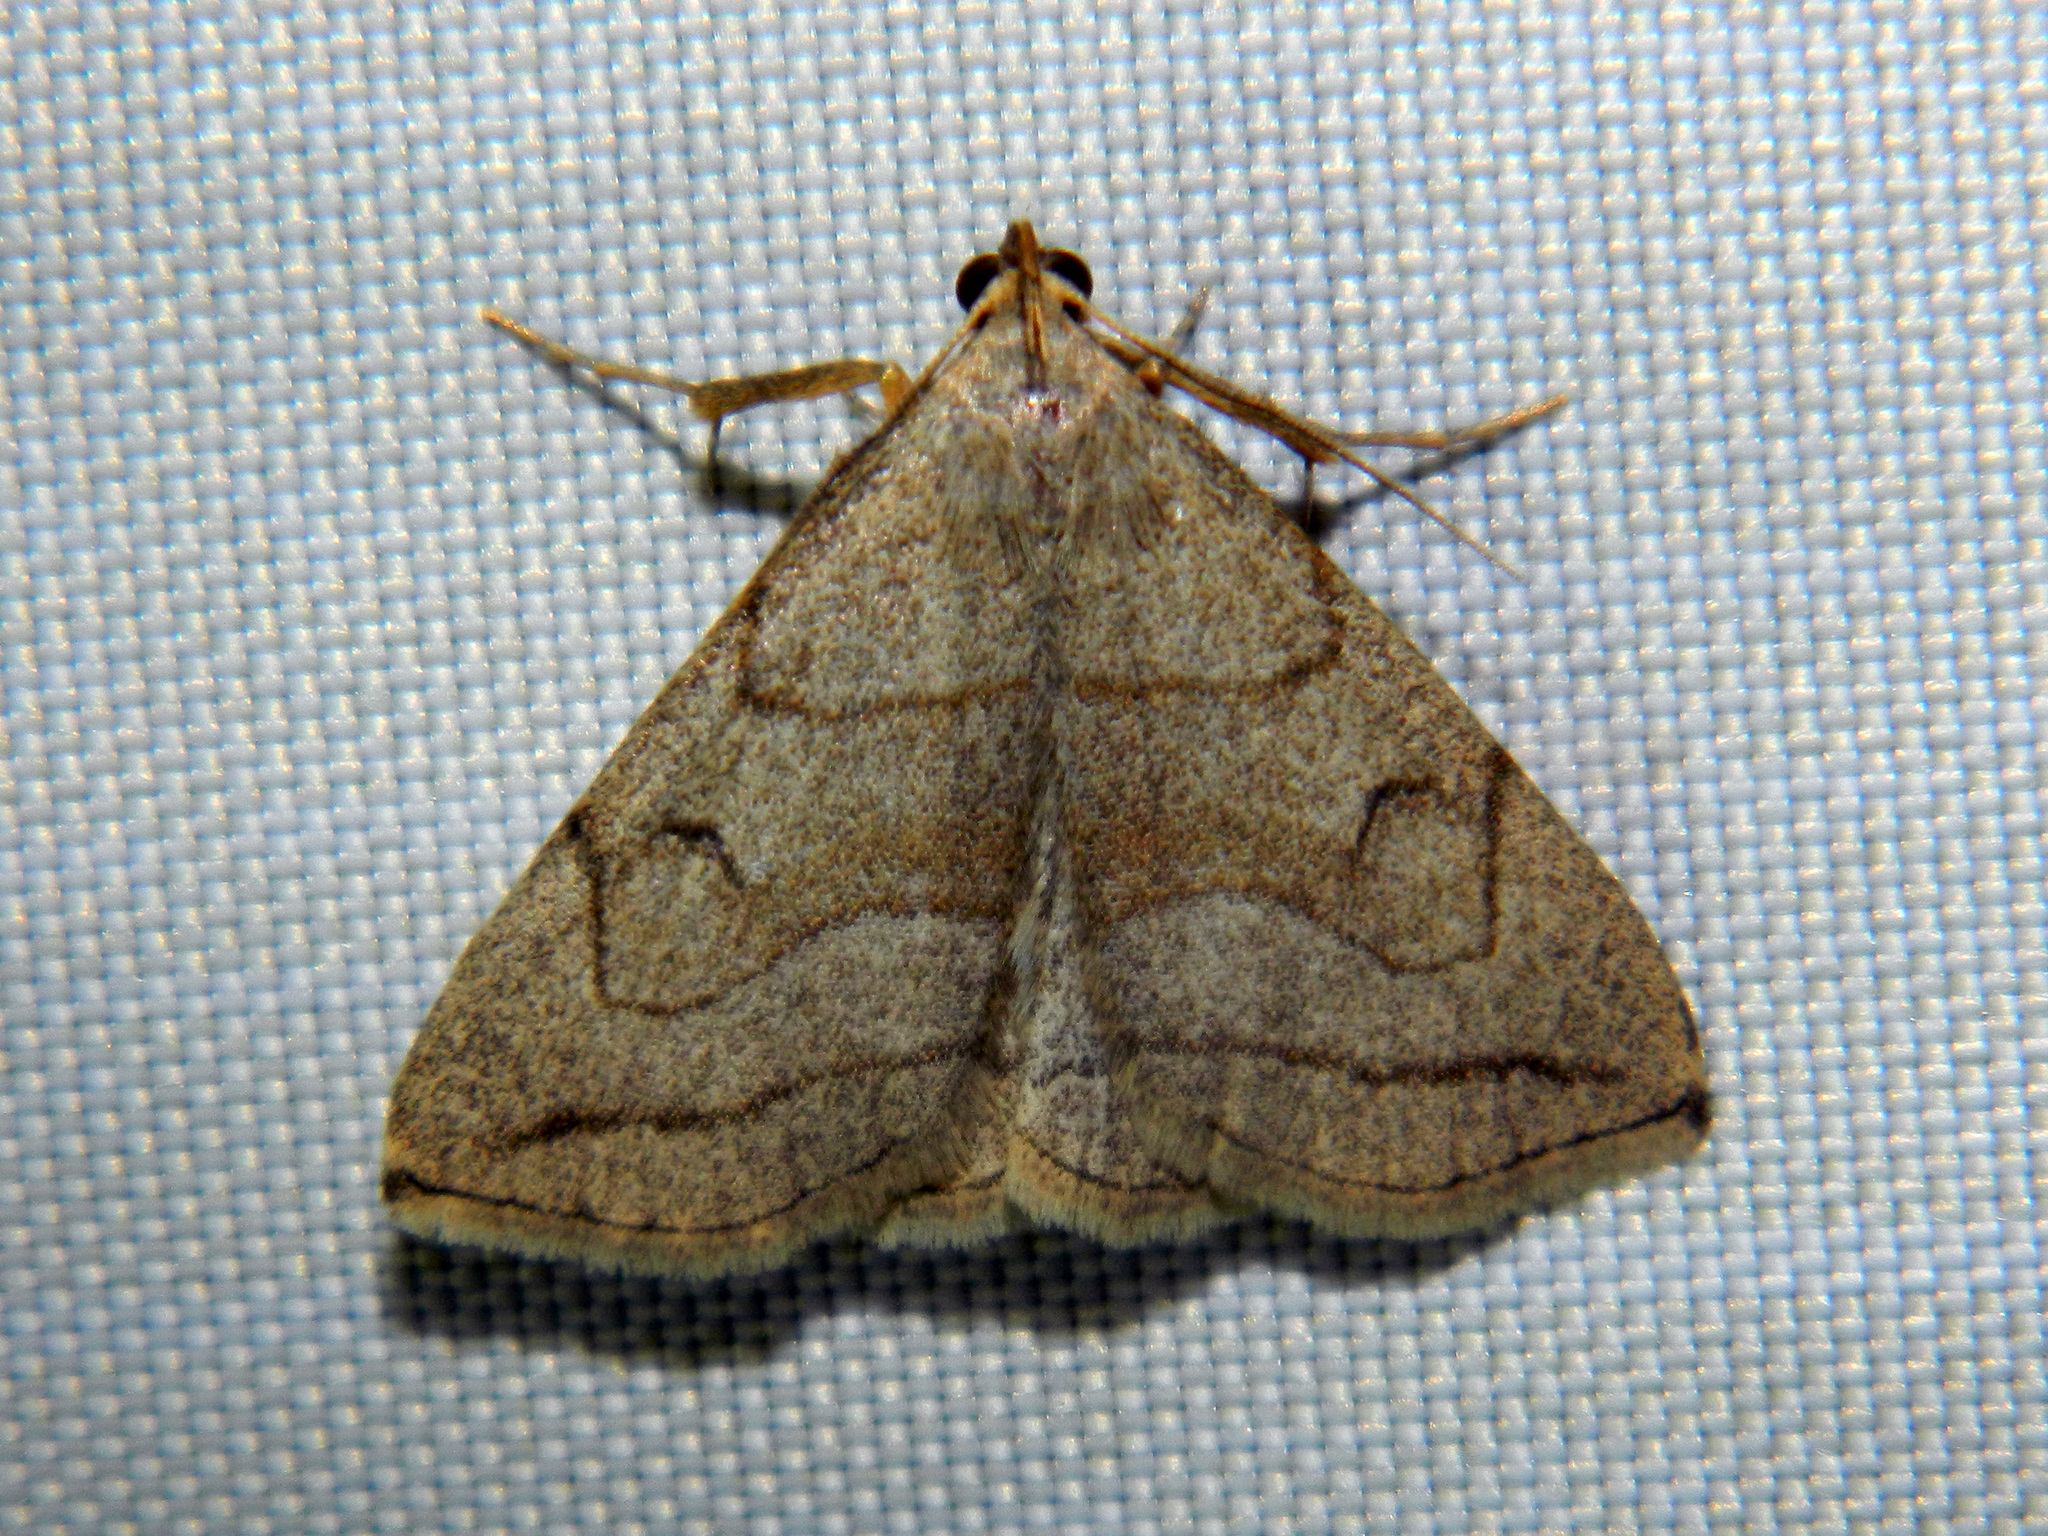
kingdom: Animalia
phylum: Arthropoda
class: Insecta
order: Lepidoptera
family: Erebidae
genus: Zanclognatha
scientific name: Zanclognatha pedipilalis
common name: Grayish fan-foot
